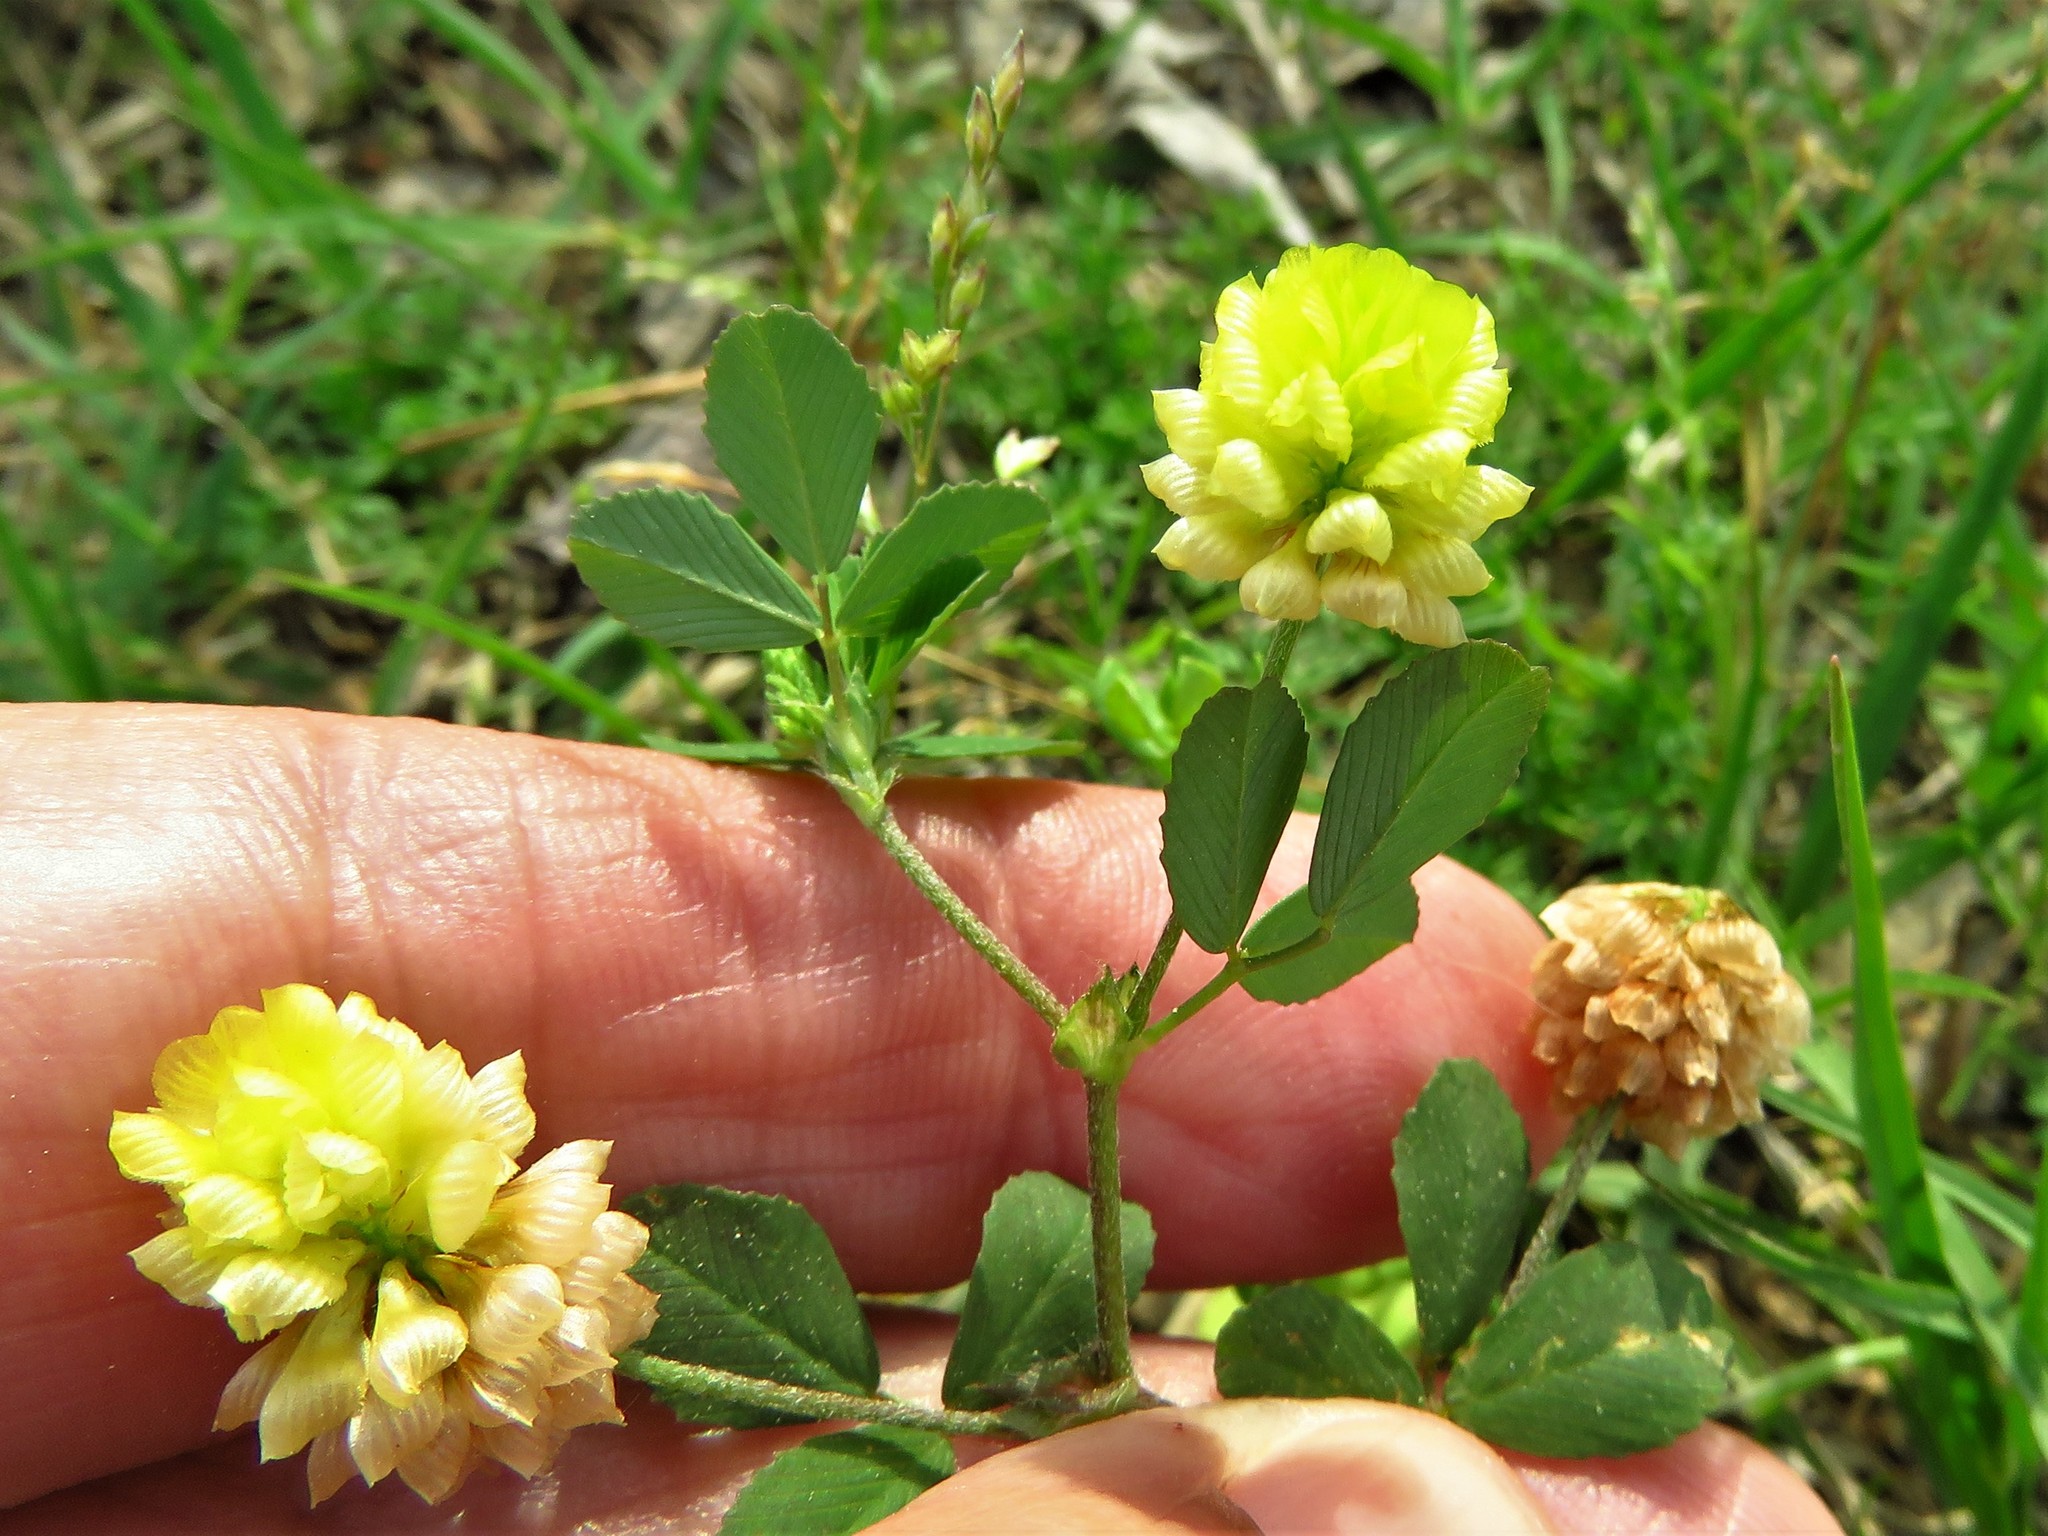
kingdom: Plantae
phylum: Tracheophyta
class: Magnoliopsida
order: Fabales
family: Fabaceae
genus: Trifolium
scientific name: Trifolium campestre
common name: Field clover
